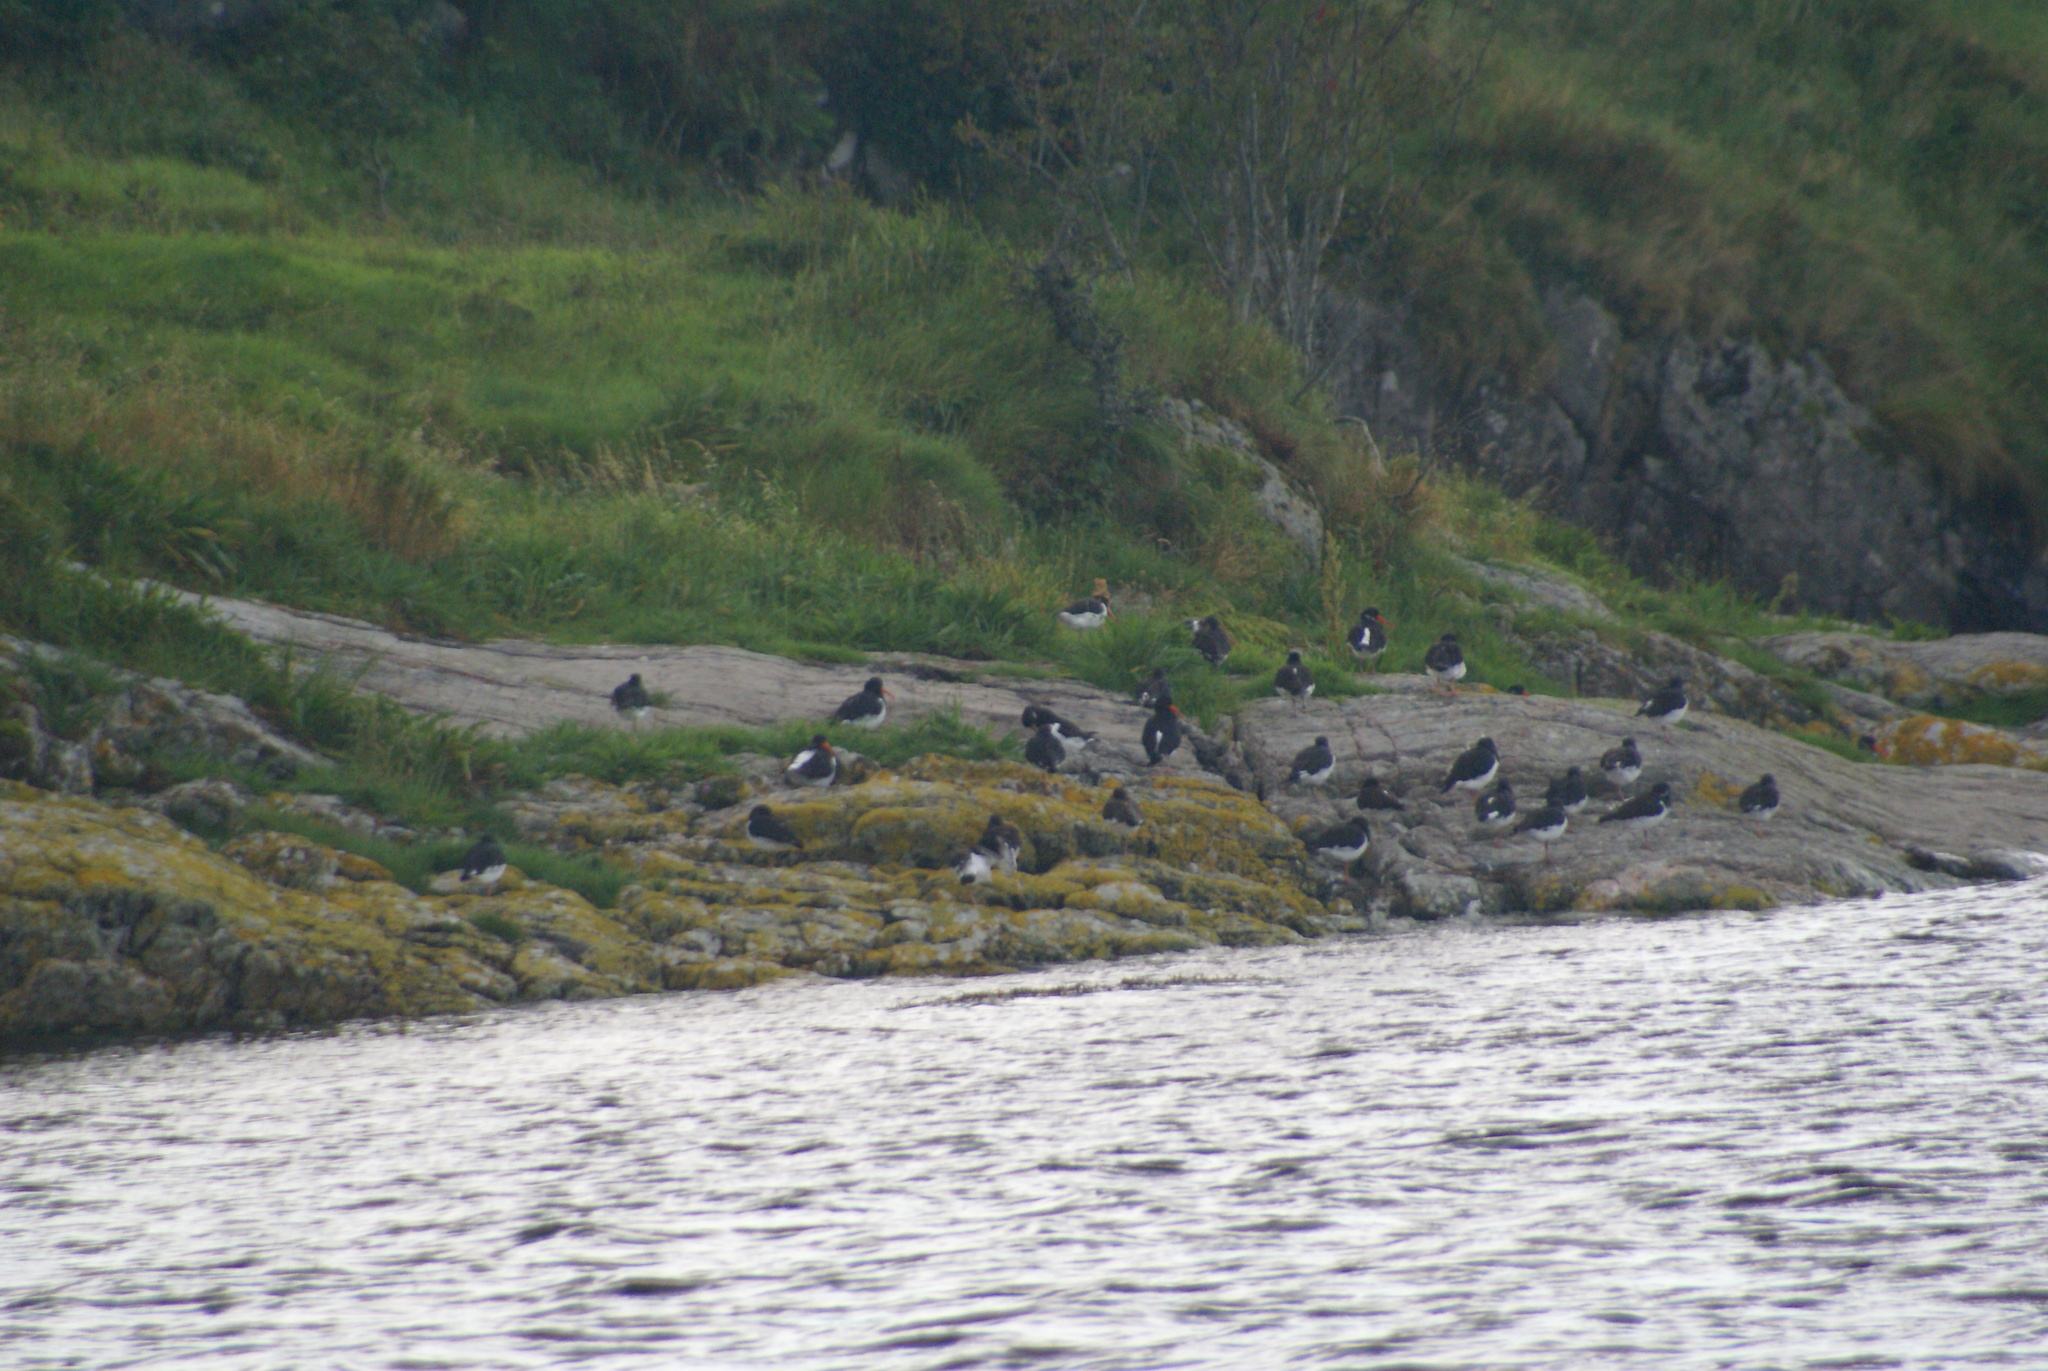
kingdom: Animalia
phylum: Chordata
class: Aves
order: Charadriiformes
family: Haematopodidae
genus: Haematopus
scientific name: Haematopus ostralegus
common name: Eurasian oystercatcher
